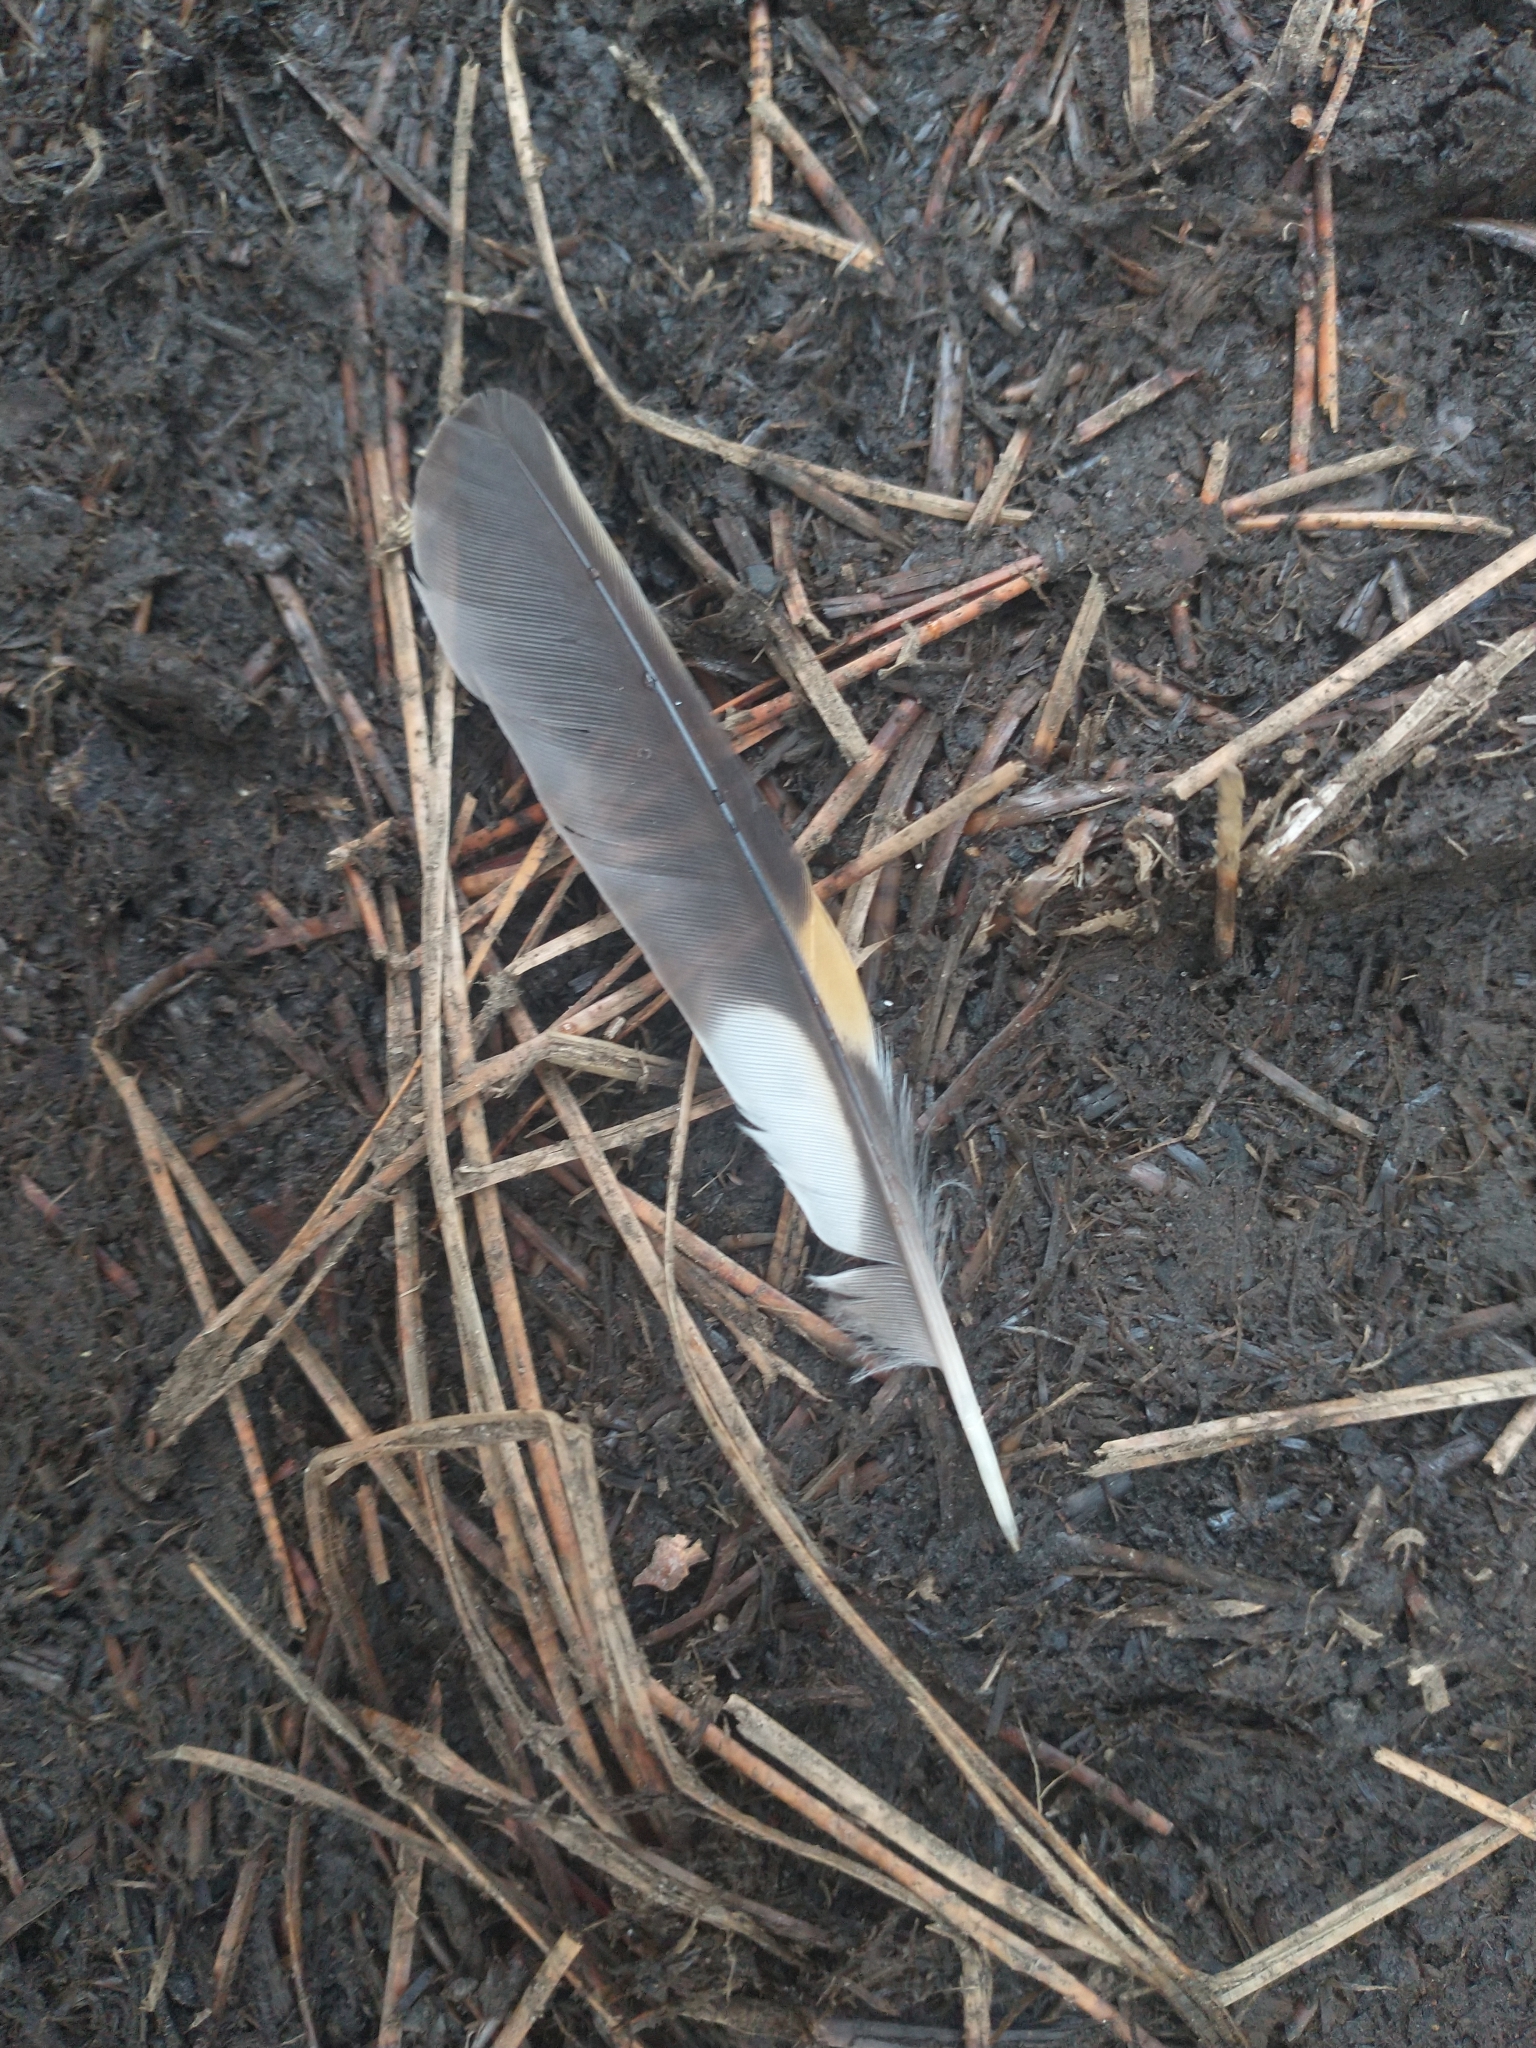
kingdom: Animalia
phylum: Chordata
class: Aves
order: Passeriformes
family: Turdidae
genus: Ixoreus
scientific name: Ixoreus naevius
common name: Varied thrush
